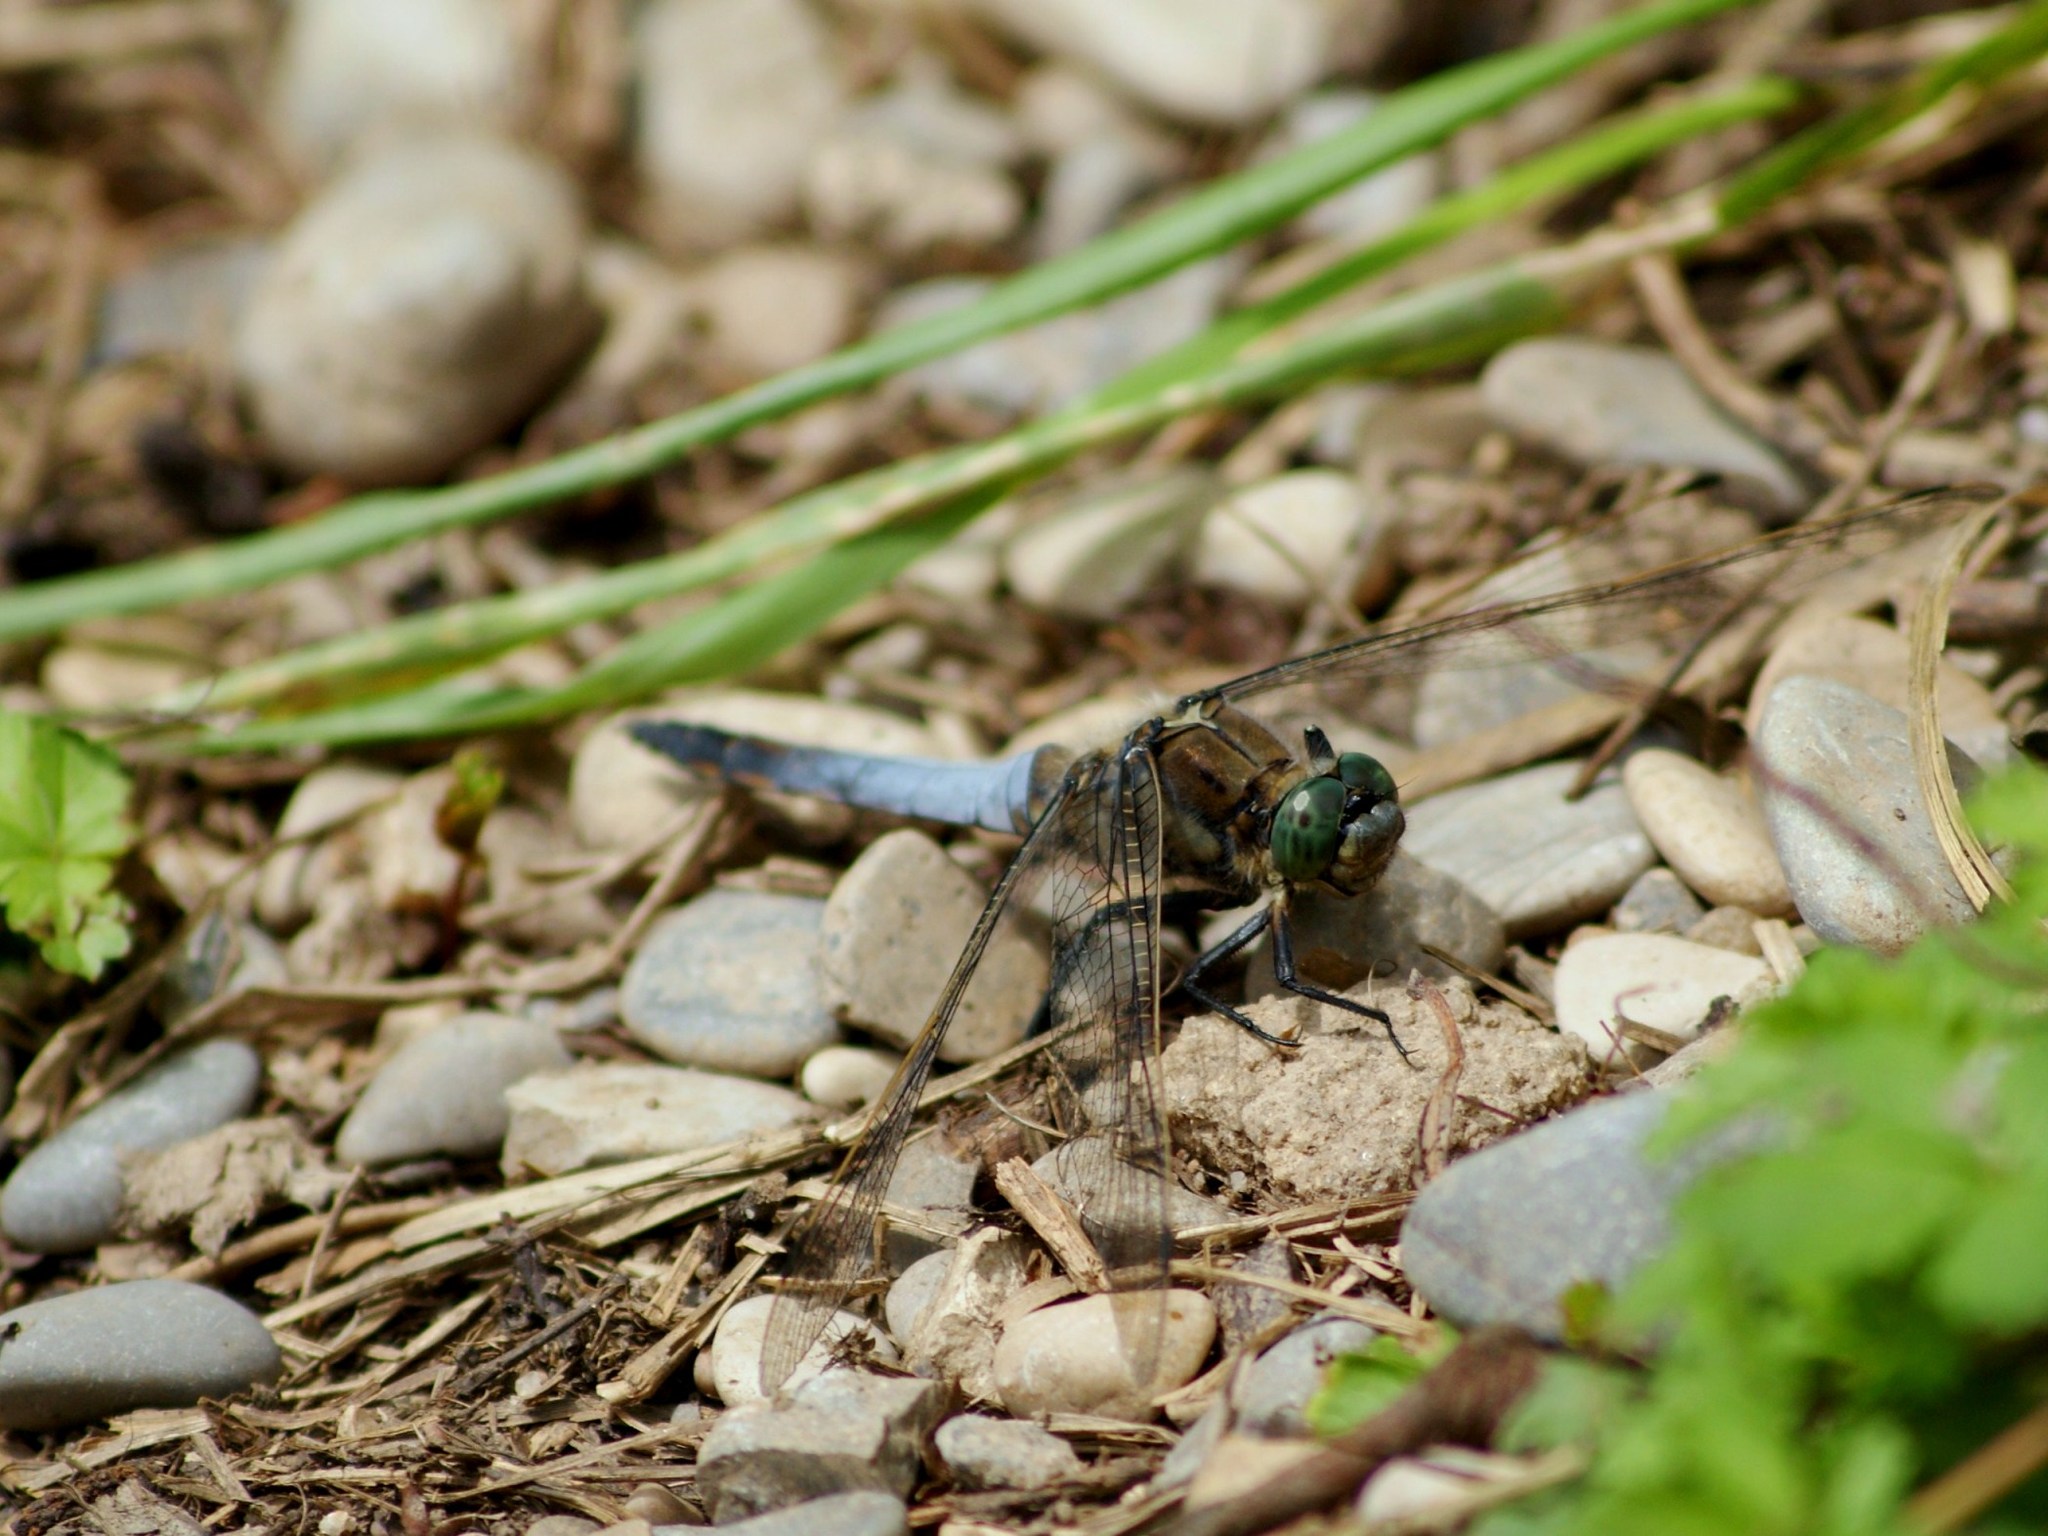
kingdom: Animalia
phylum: Arthropoda
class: Insecta
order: Odonata
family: Libellulidae
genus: Orthetrum
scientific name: Orthetrum cancellatum
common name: Black-tailed skimmer
